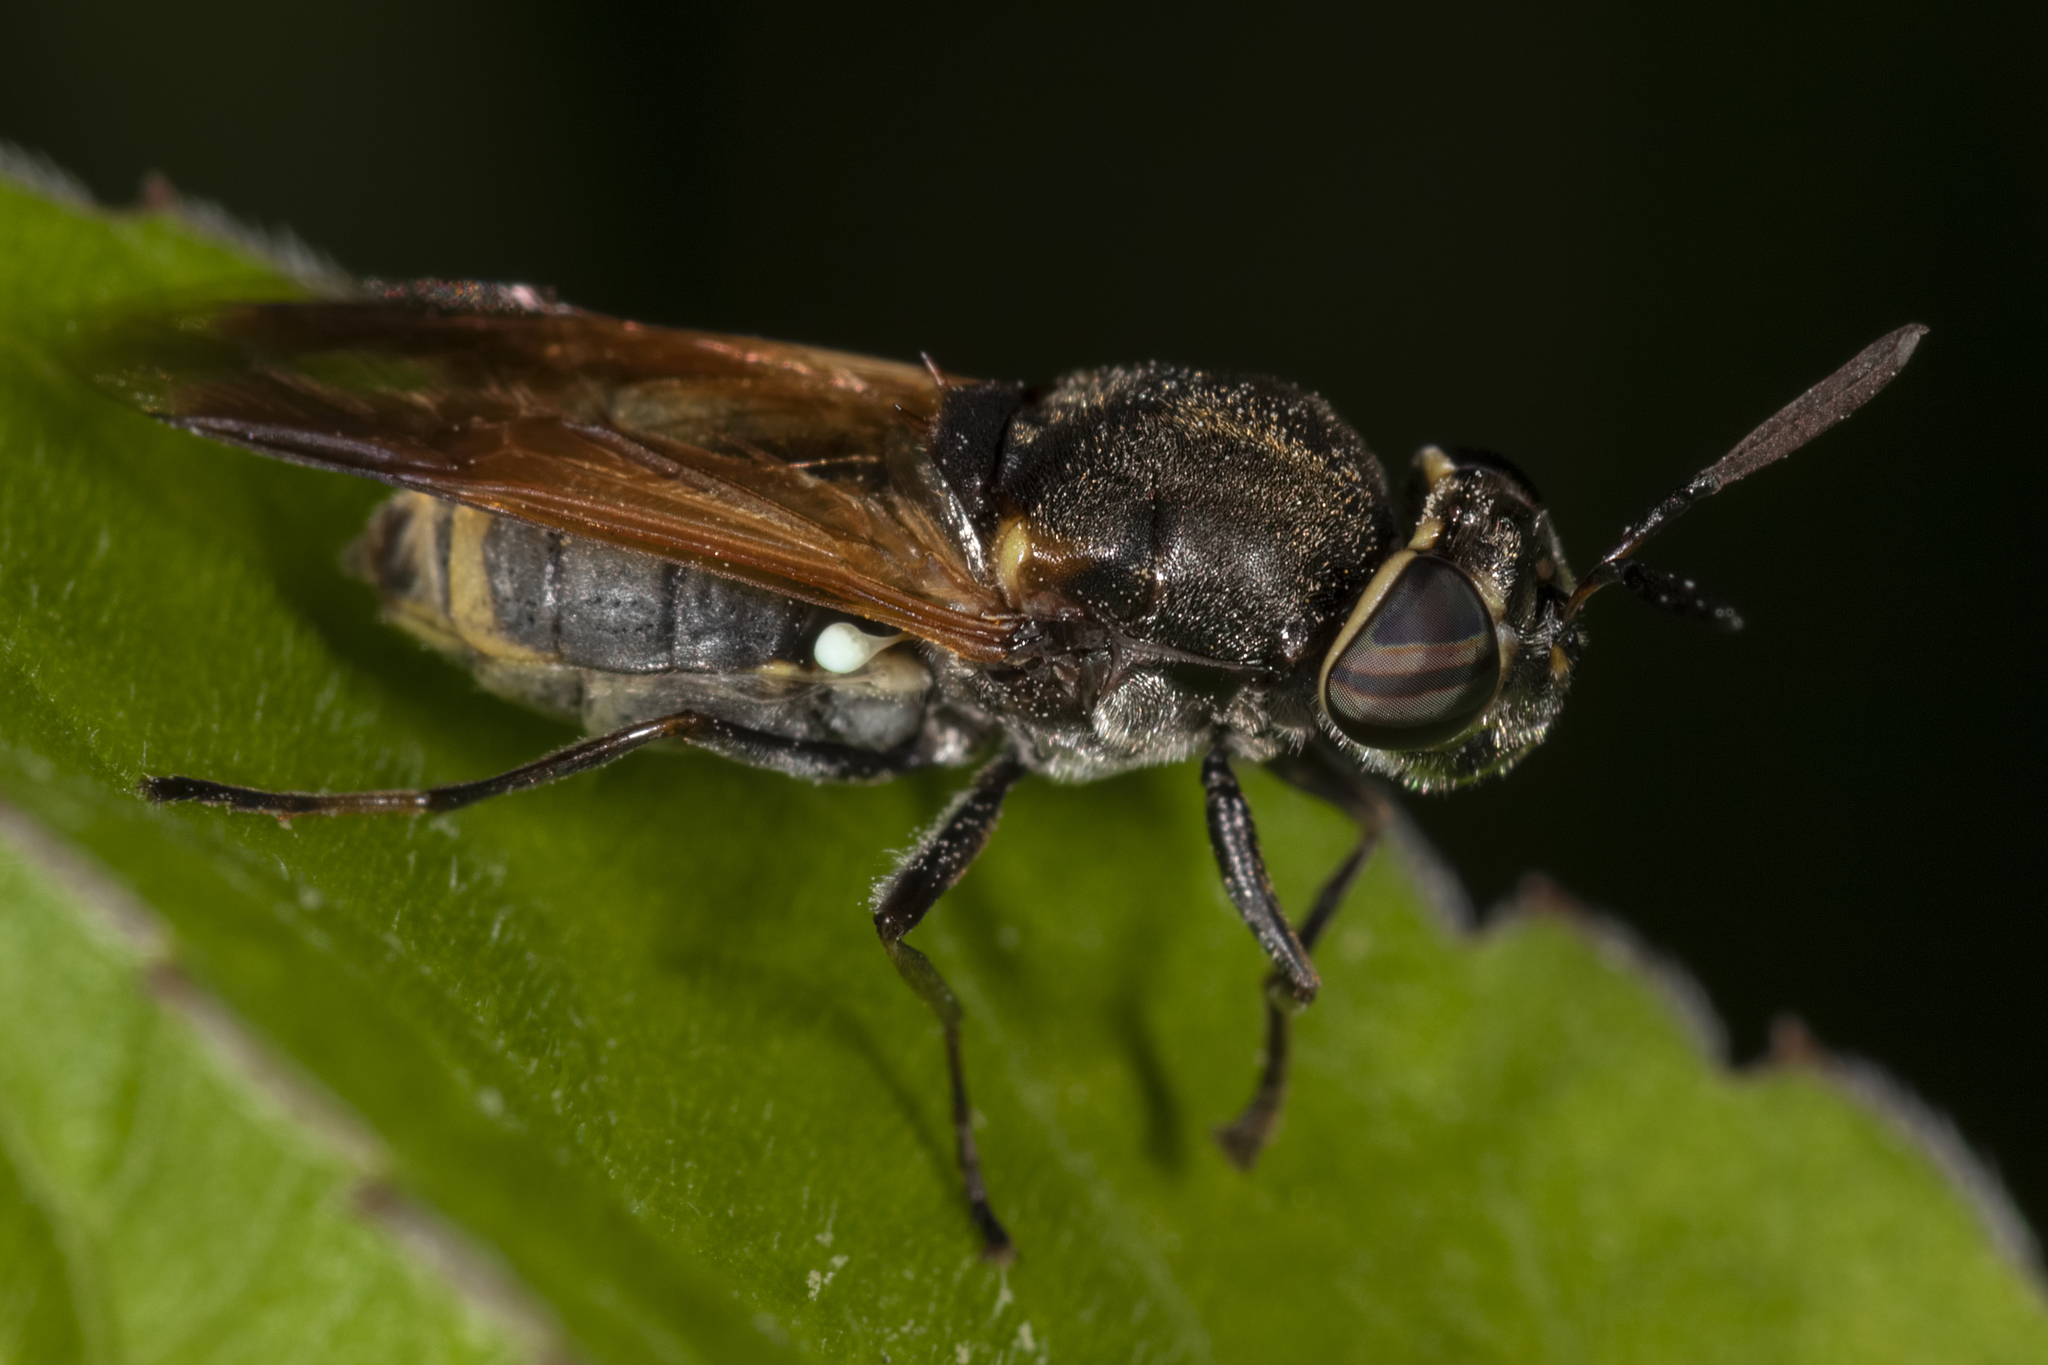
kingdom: Animalia
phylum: Arthropoda
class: Insecta
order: Diptera
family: Stratiomyidae
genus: Hoplitimyia
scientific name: Hoplitimyia
